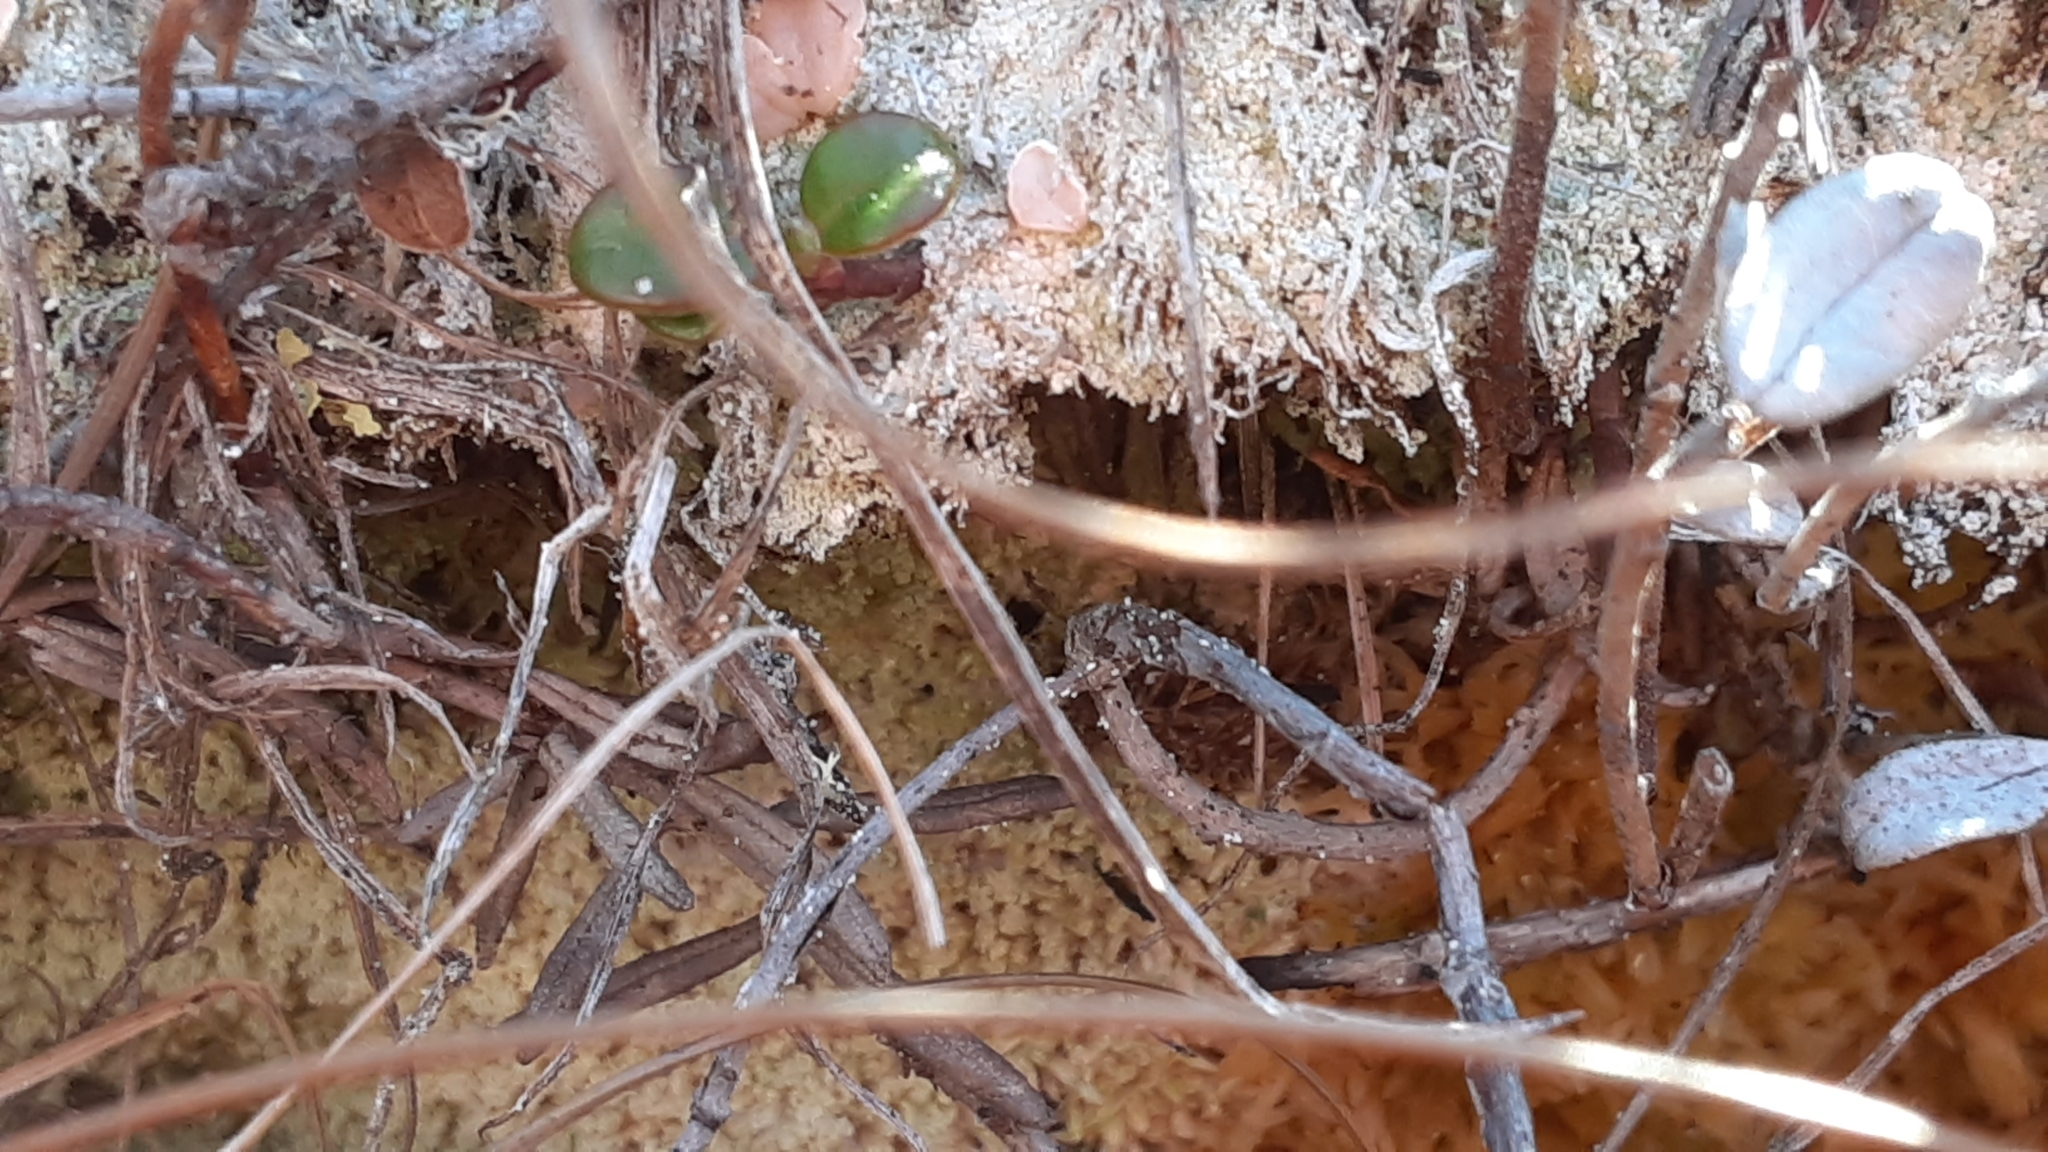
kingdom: Fungi
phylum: Ascomycota
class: Lecanoromycetes
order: Pertusariales
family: Icmadophilaceae
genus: Icmadophila
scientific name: Icmadophila ericetorum
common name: Candy lichen
